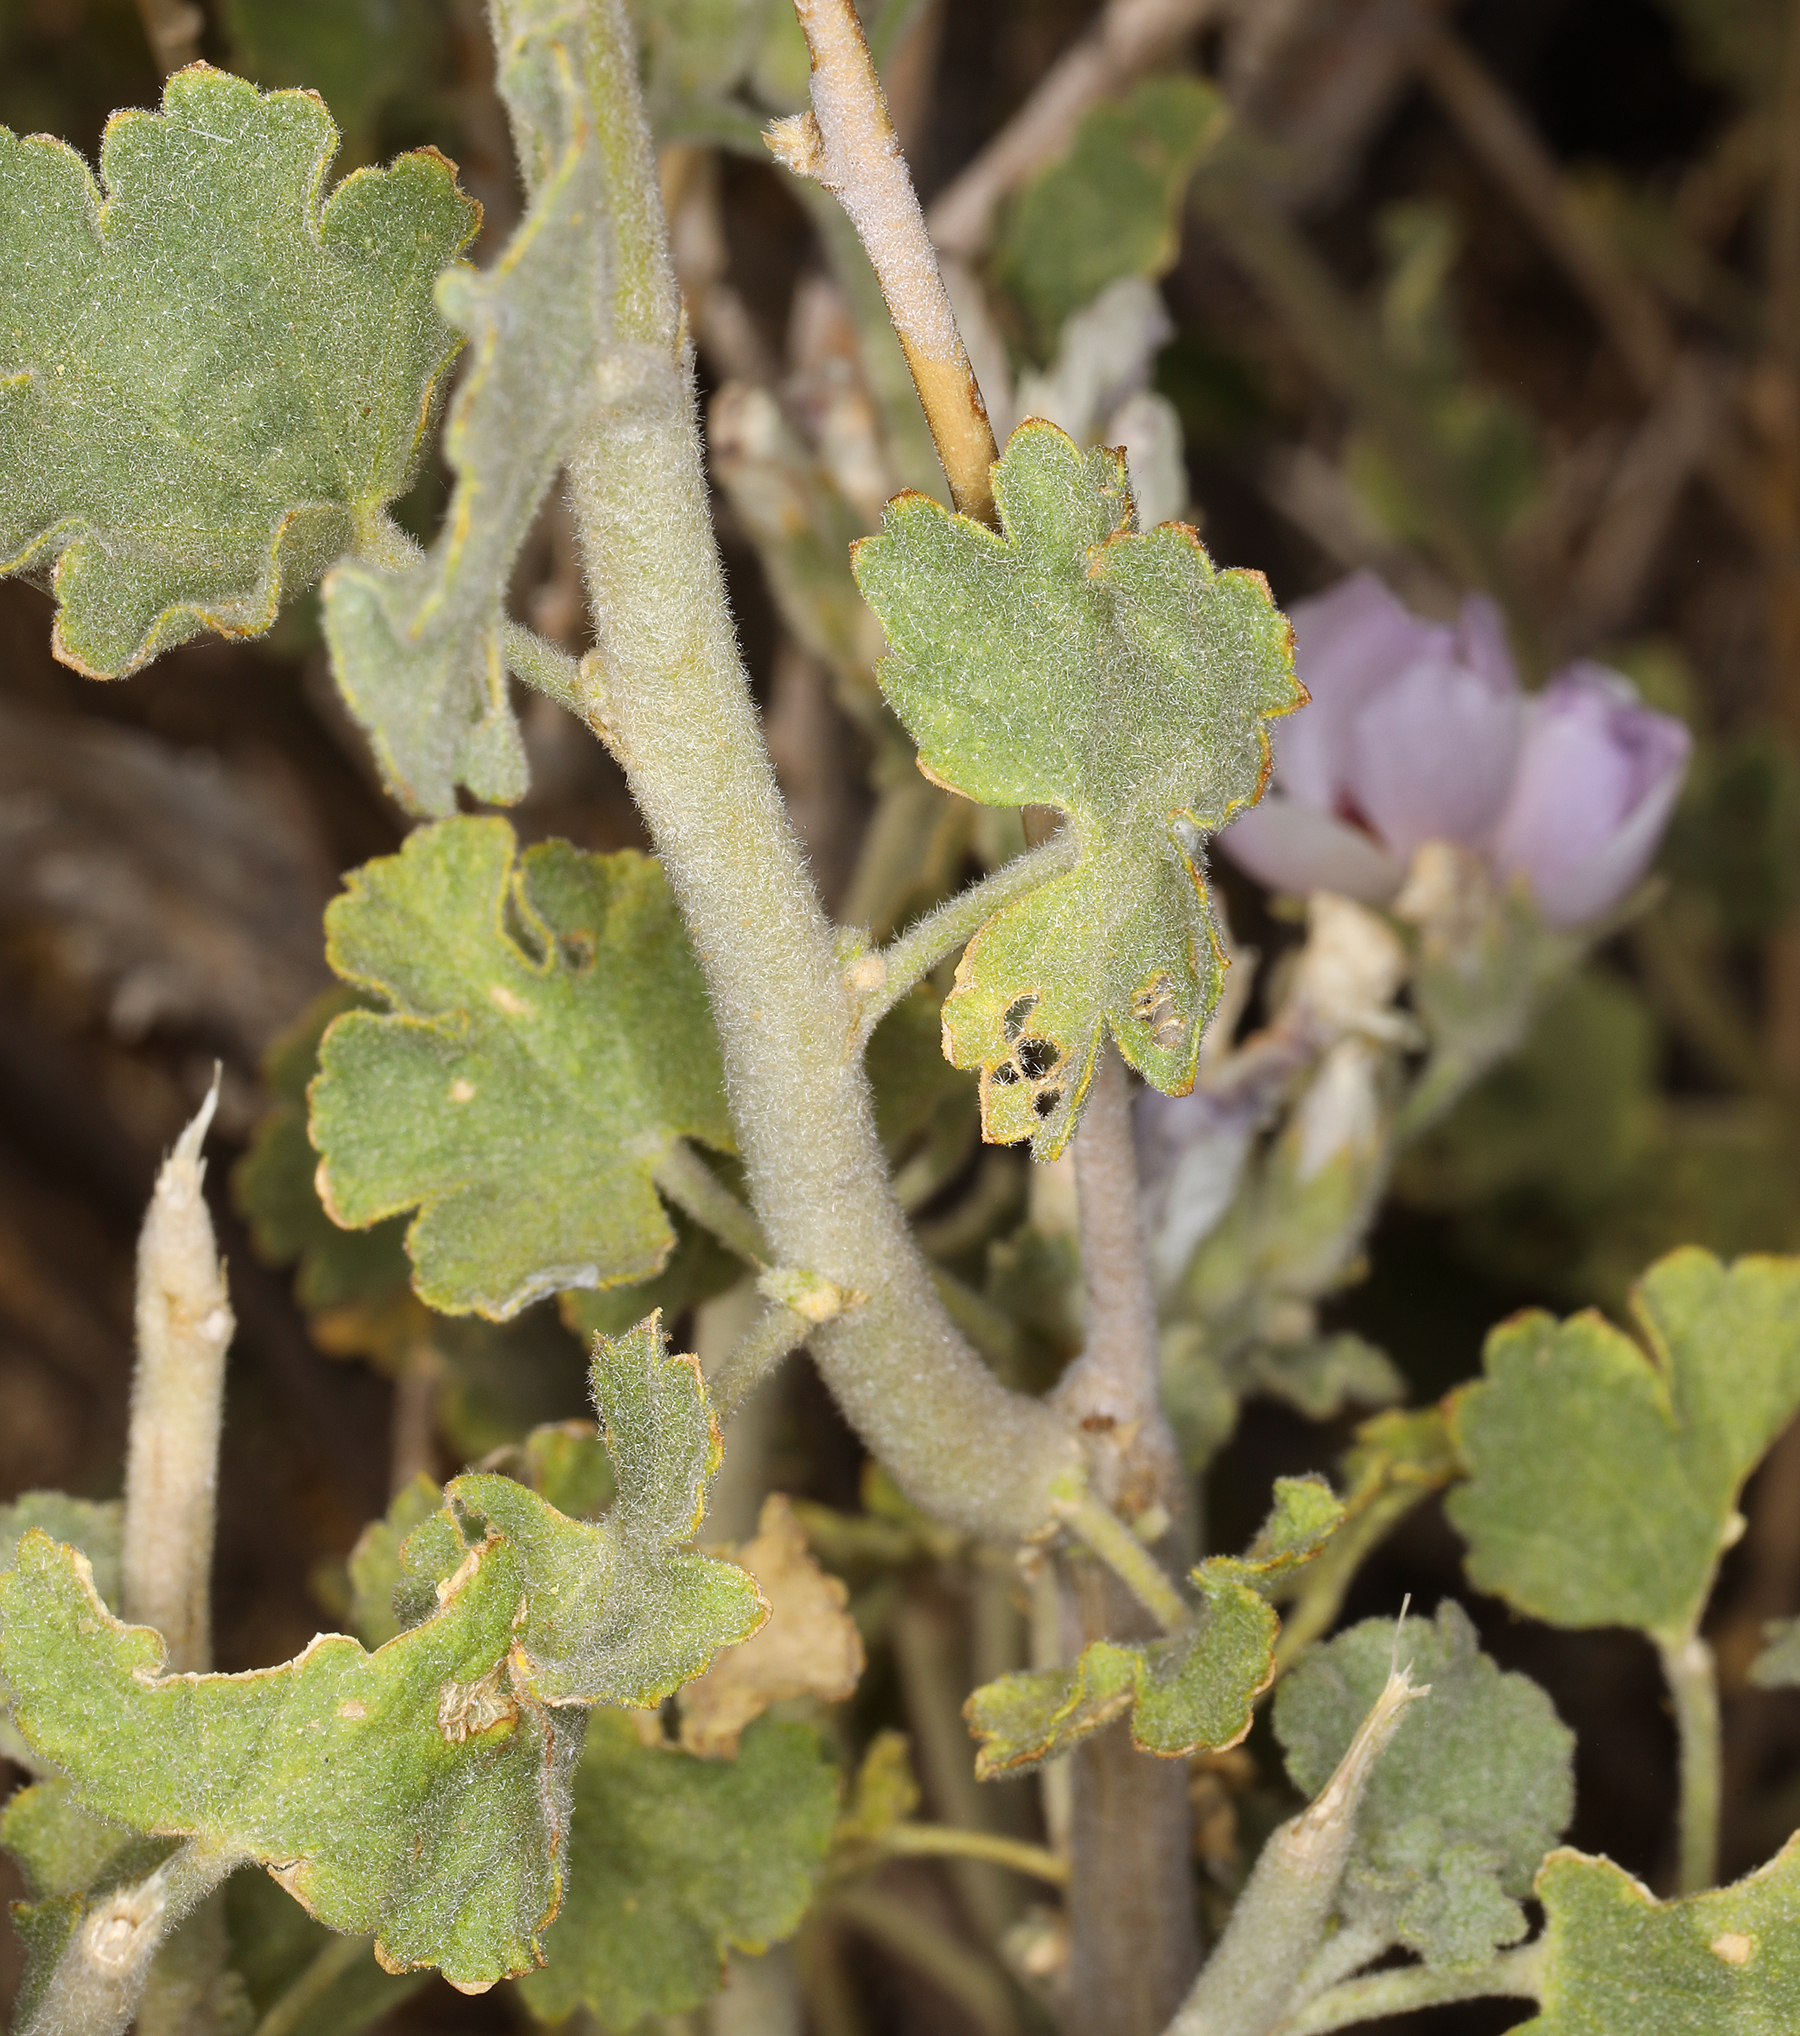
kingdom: Plantae
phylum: Tracheophyta
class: Magnoliopsida
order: Malvales
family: Malvaceae
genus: Malacothamnus
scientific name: Malacothamnus fremontii
